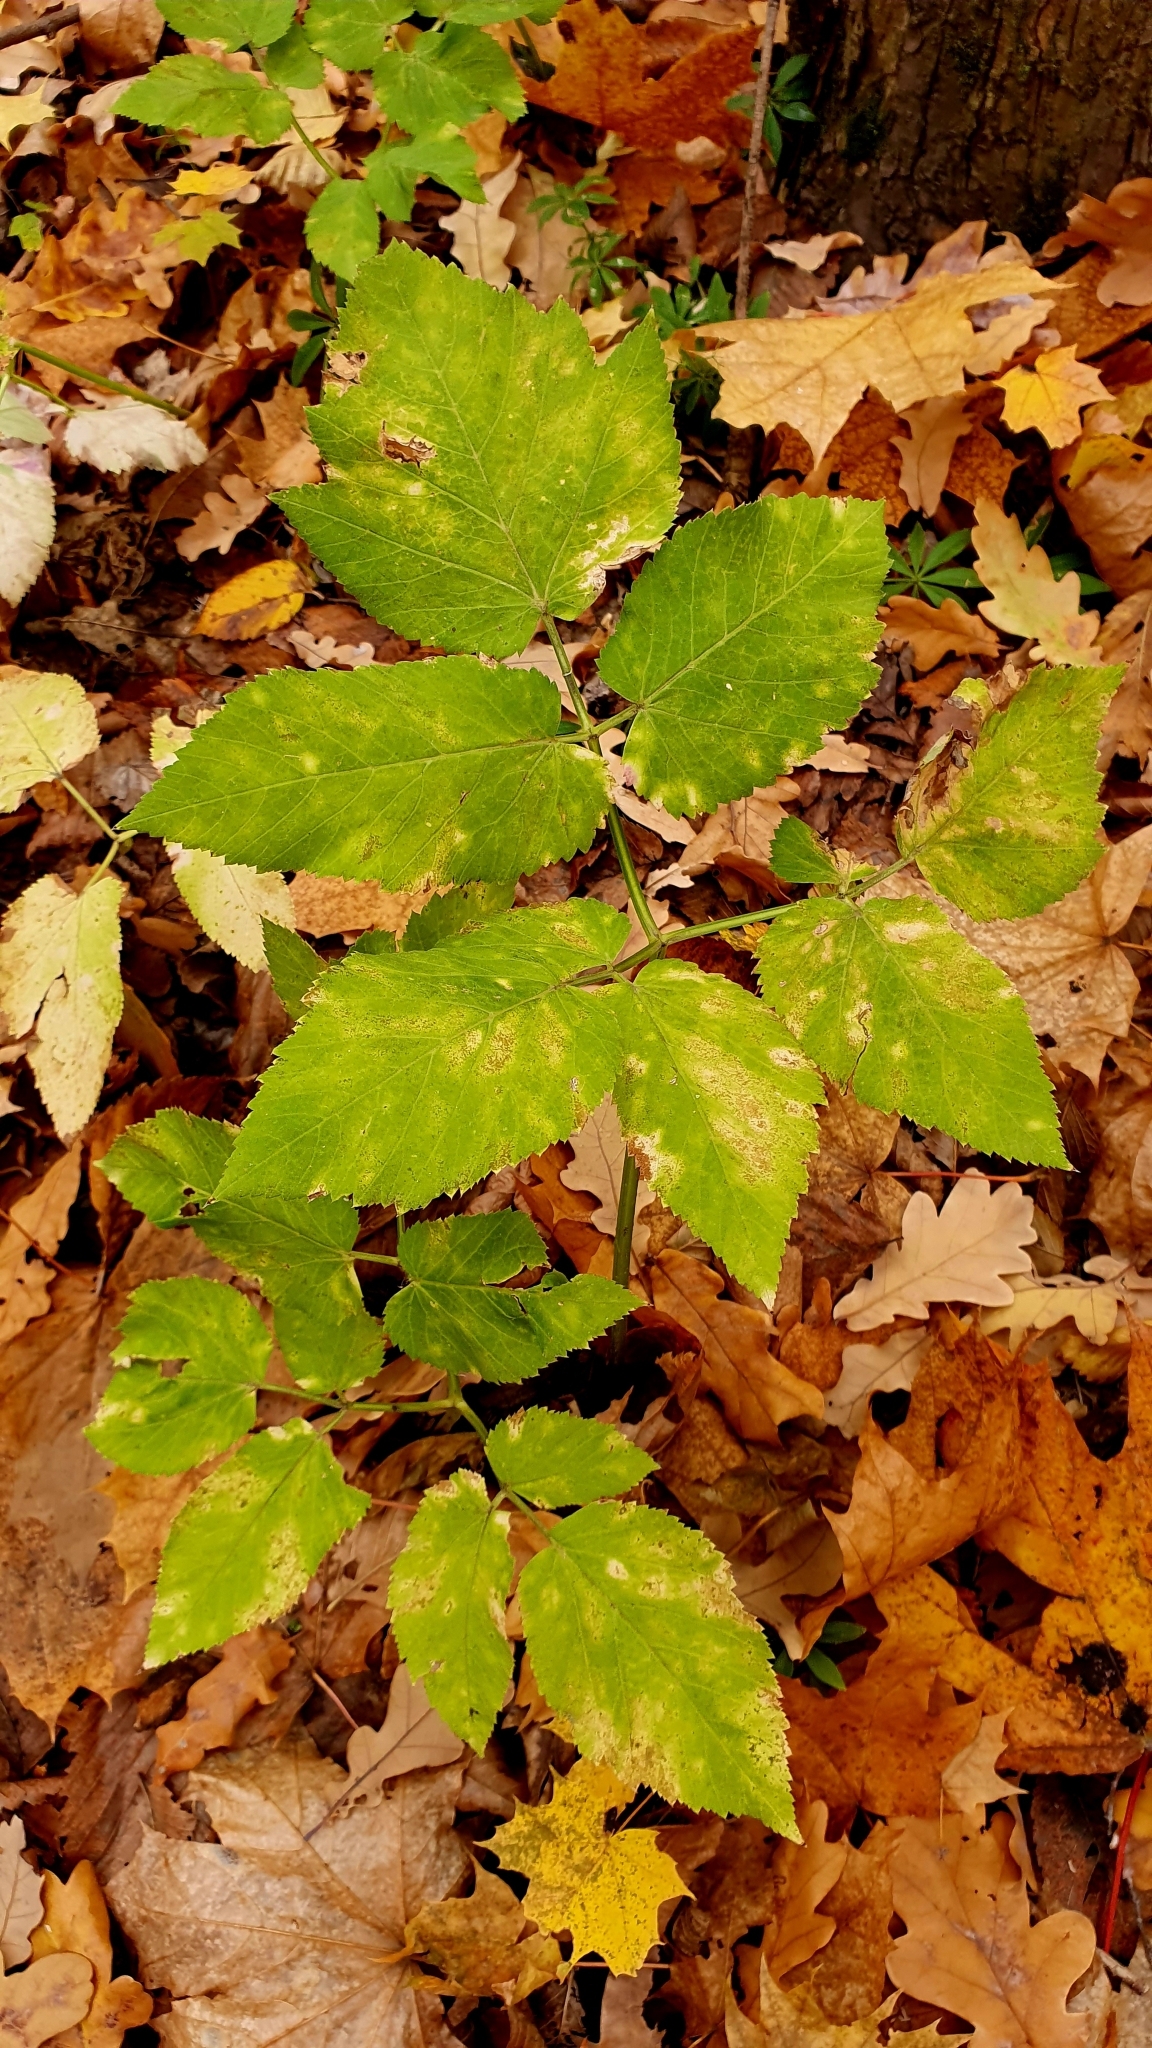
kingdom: Plantae
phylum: Tracheophyta
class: Magnoliopsida
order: Apiales
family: Apiaceae
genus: Aegopodium
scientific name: Aegopodium podagraria
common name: Ground-elder
